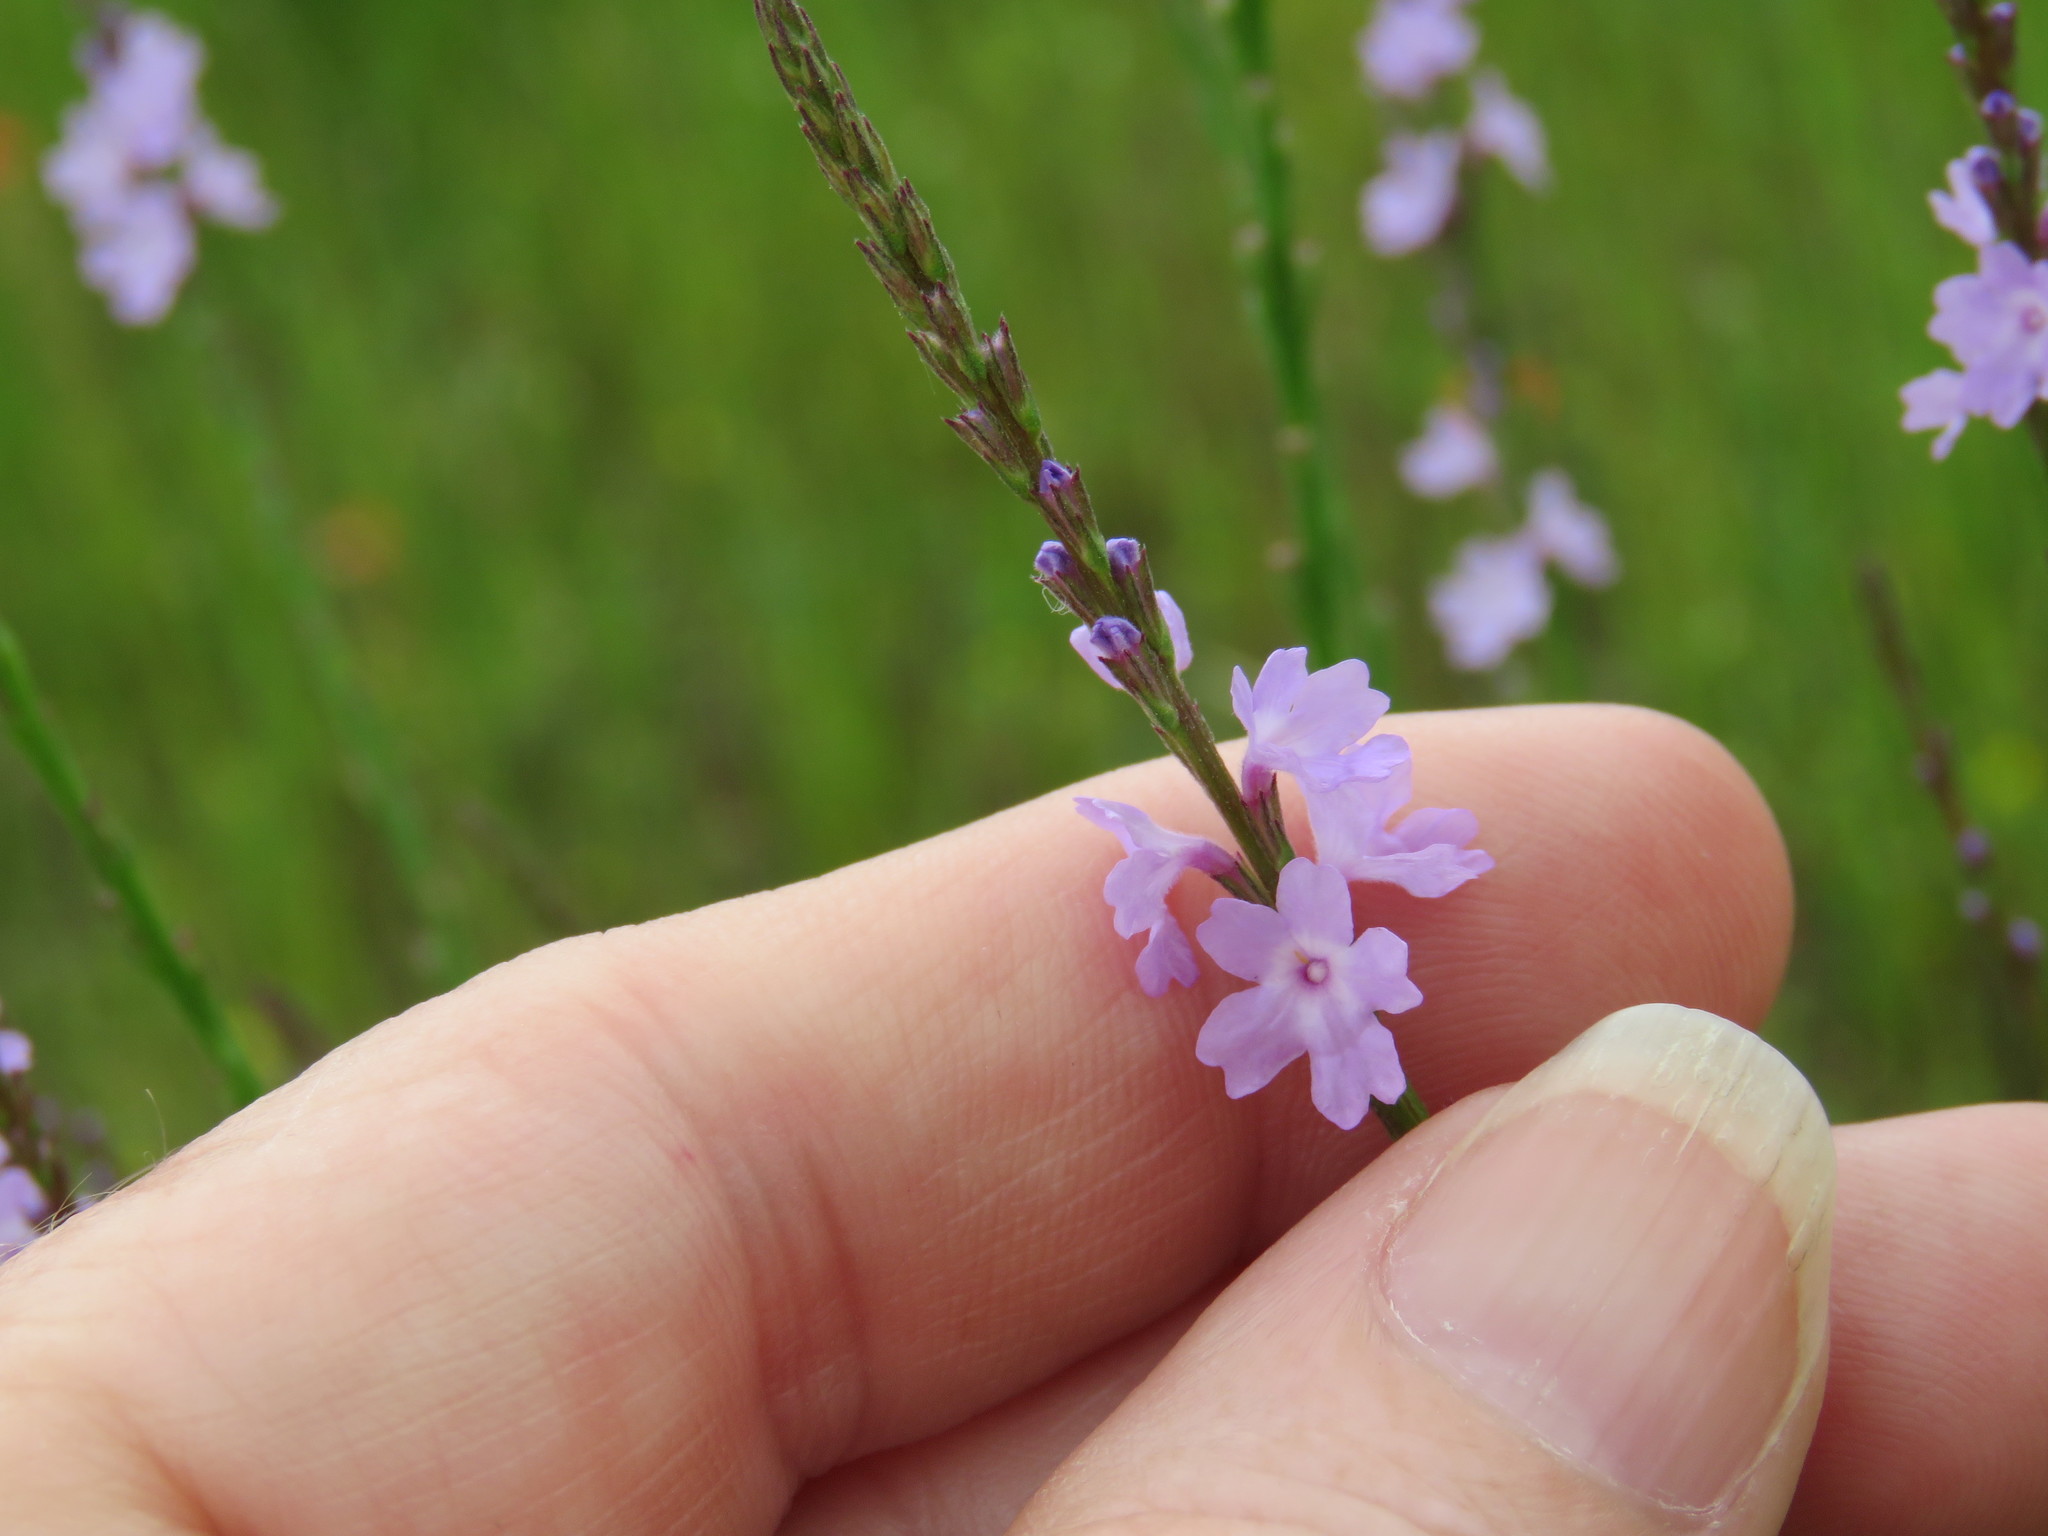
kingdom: Plantae
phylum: Tracheophyta
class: Magnoliopsida
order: Lamiales
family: Verbenaceae
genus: Verbena
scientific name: Verbena halei
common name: Texas vervain
